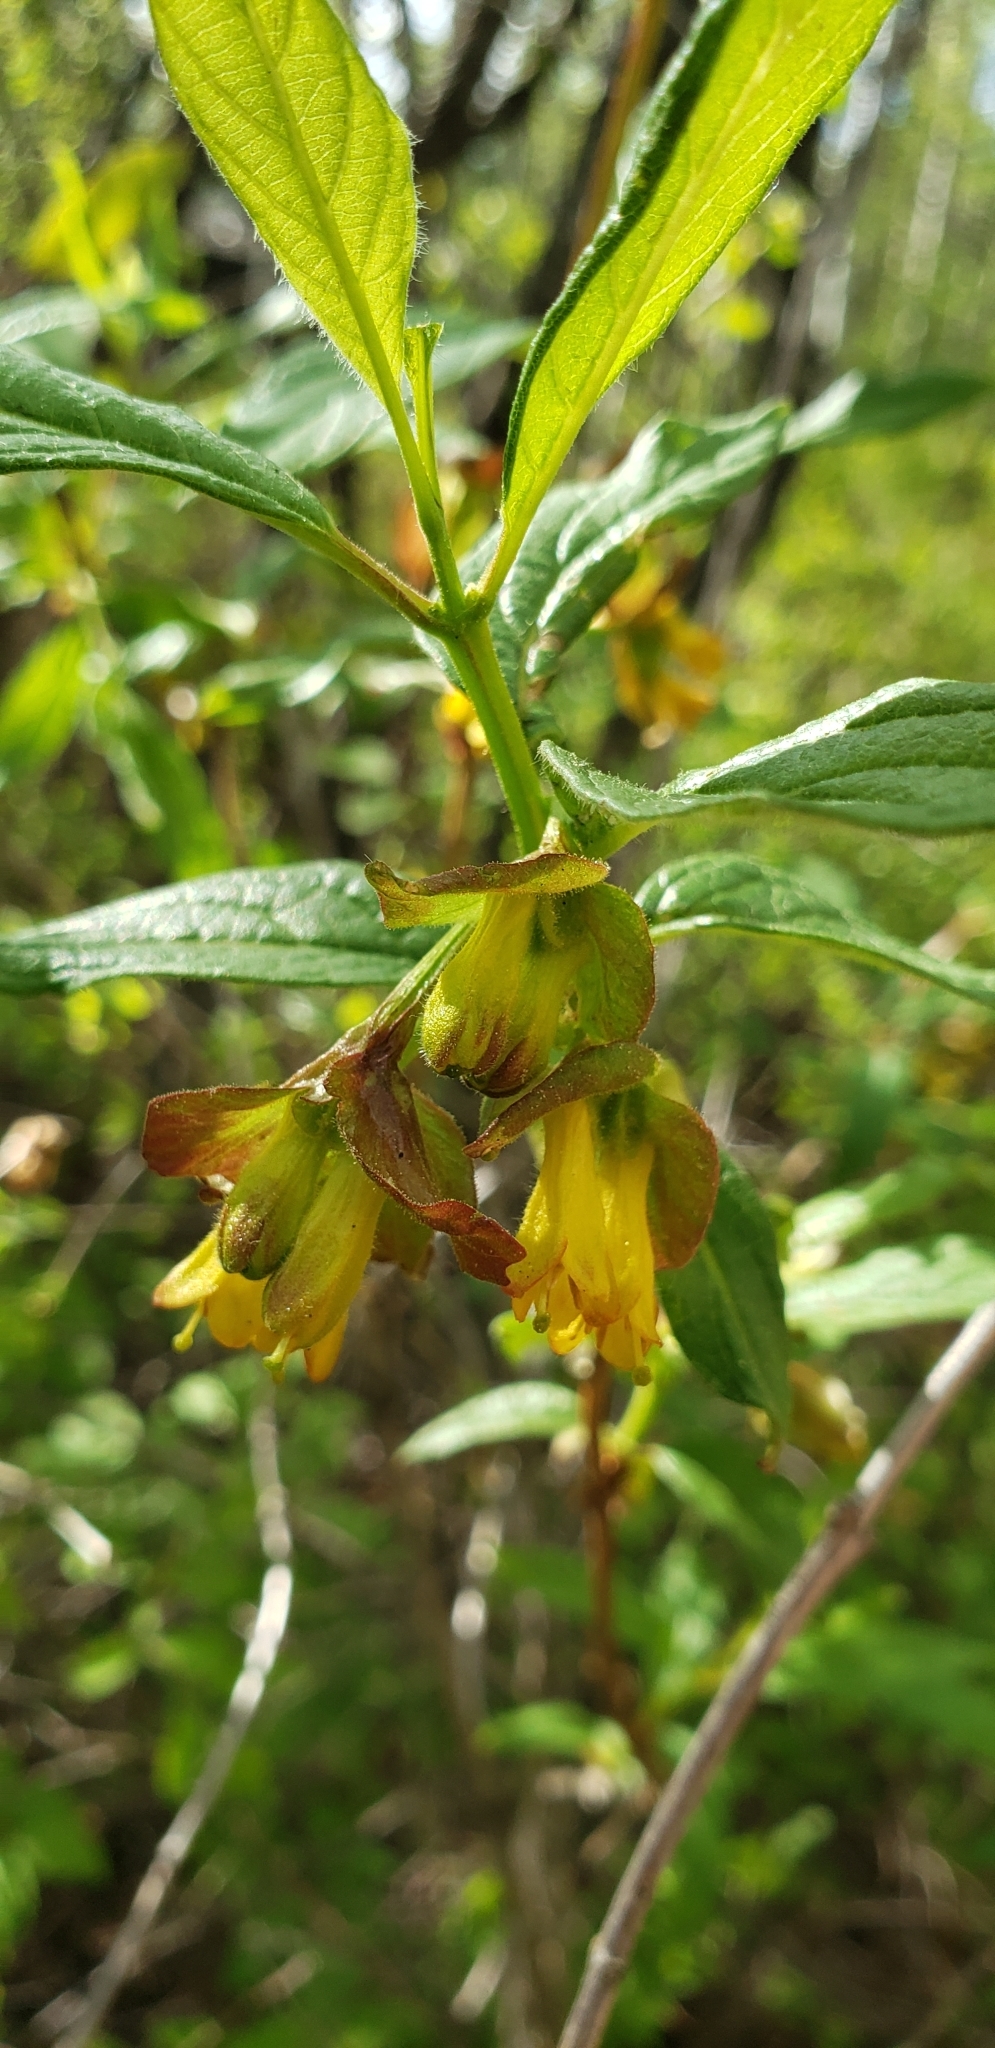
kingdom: Plantae
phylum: Tracheophyta
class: Magnoliopsida
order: Dipsacales
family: Caprifoliaceae
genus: Lonicera
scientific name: Lonicera involucrata
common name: Californian honeysuckle
